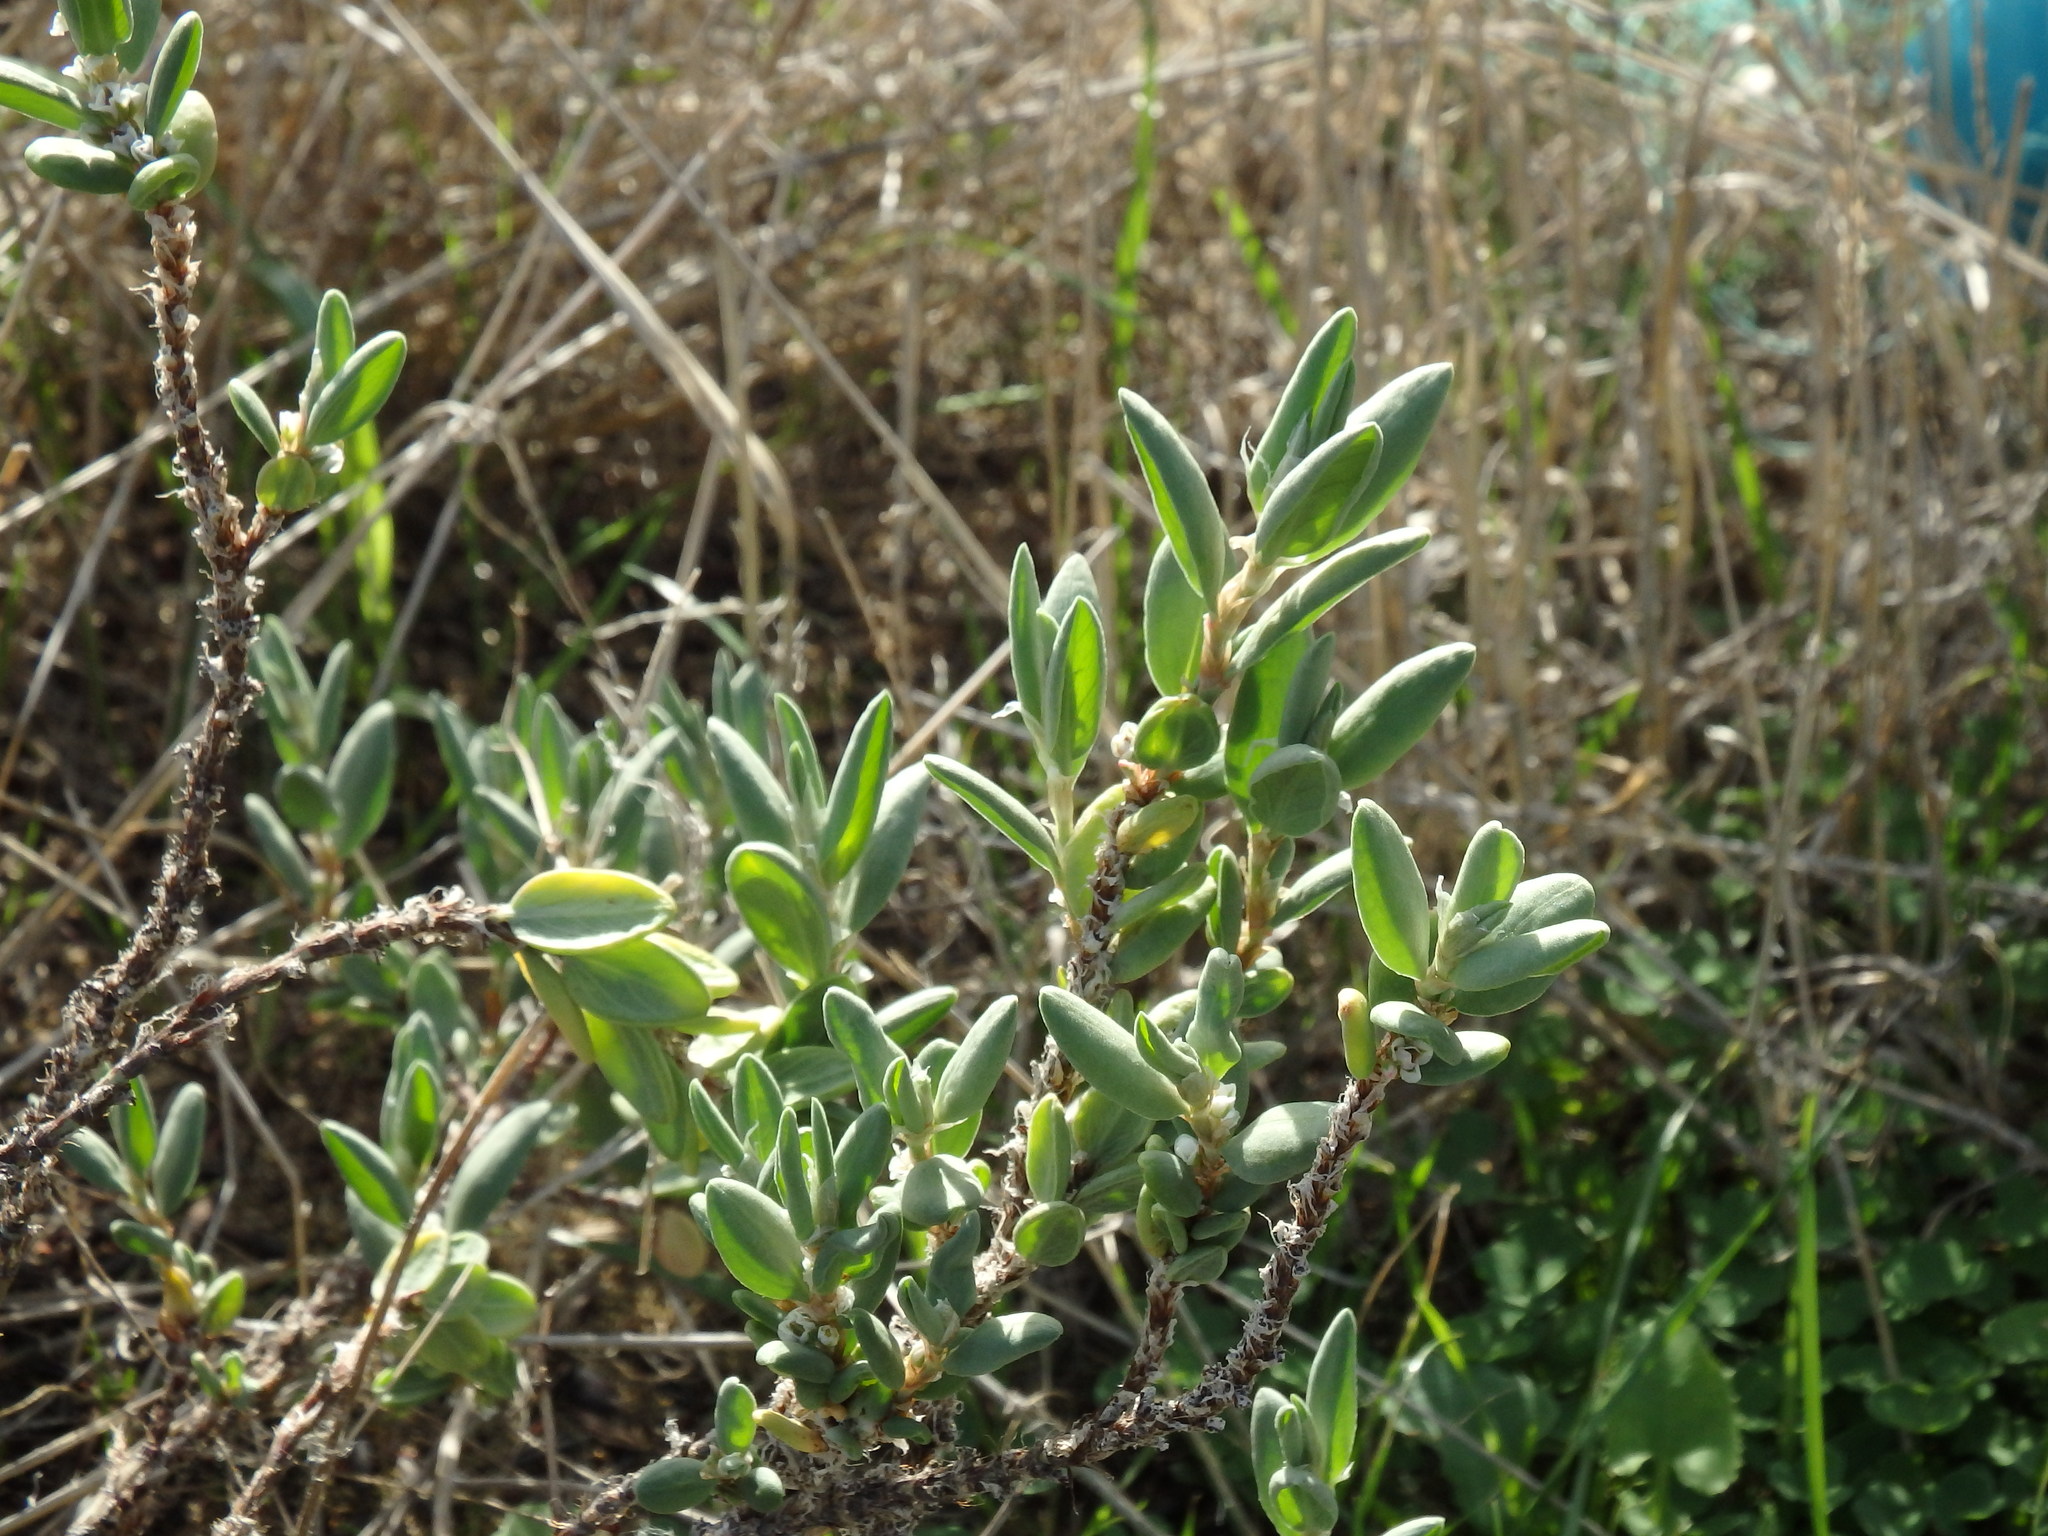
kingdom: Plantae
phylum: Tracheophyta
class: Magnoliopsida
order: Caryophyllales
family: Polygonaceae
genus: Polygonum
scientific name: Polygonum maritimum
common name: Sea knotgrass
